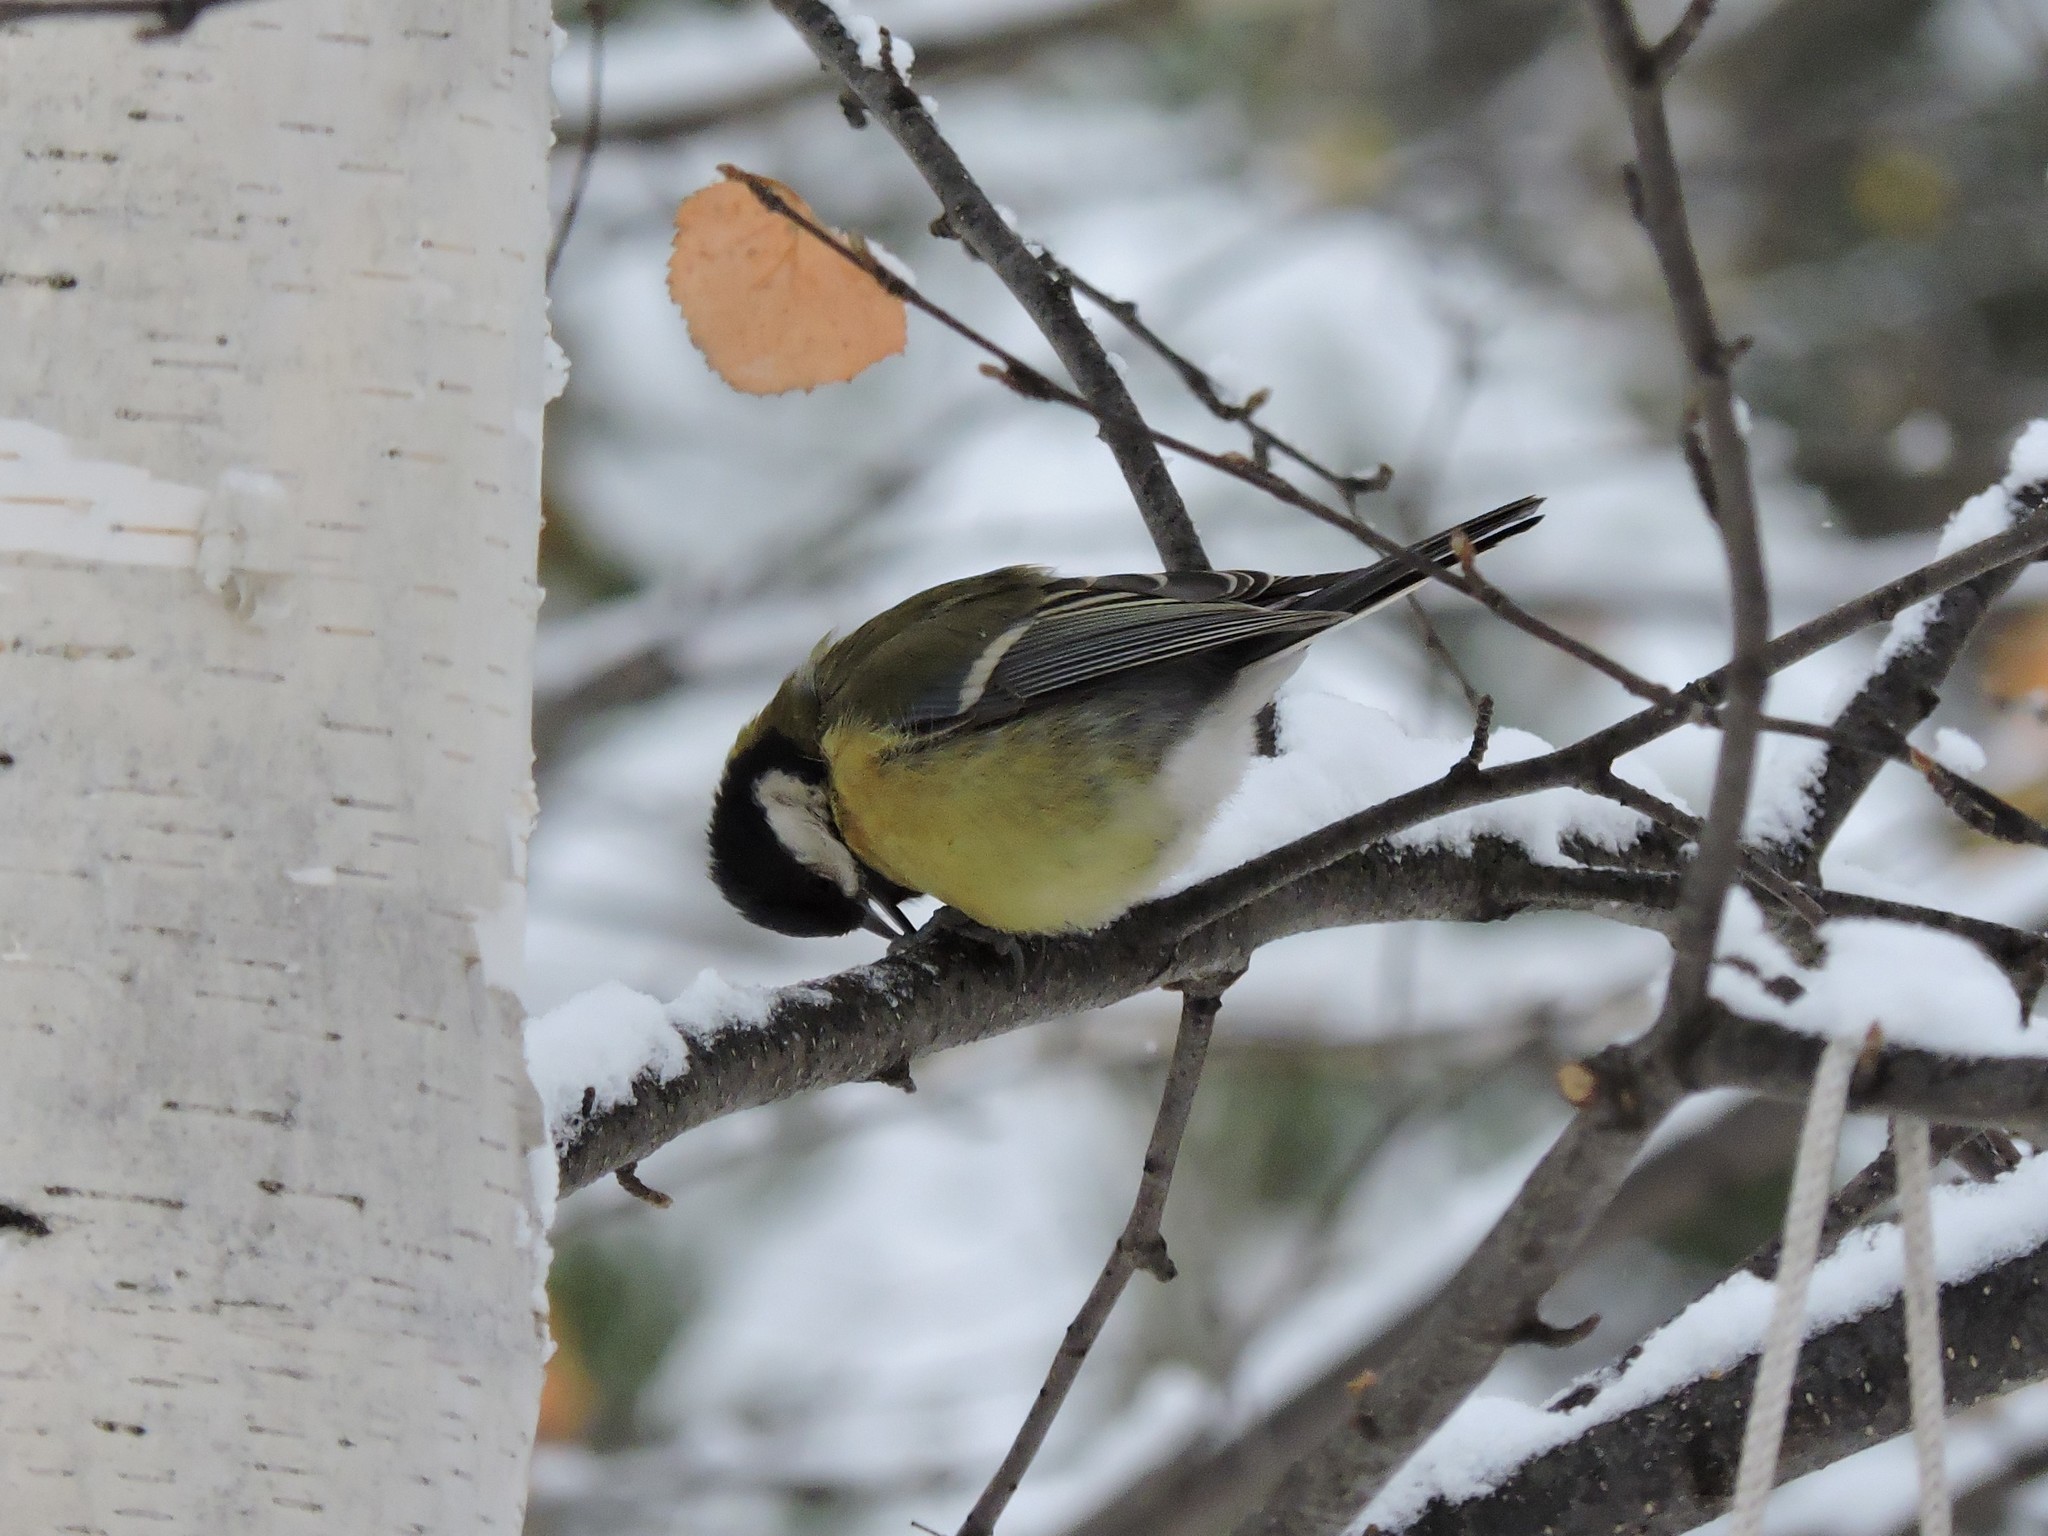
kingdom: Animalia
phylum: Chordata
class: Aves
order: Passeriformes
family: Paridae
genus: Parus
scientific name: Parus major
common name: Great tit
